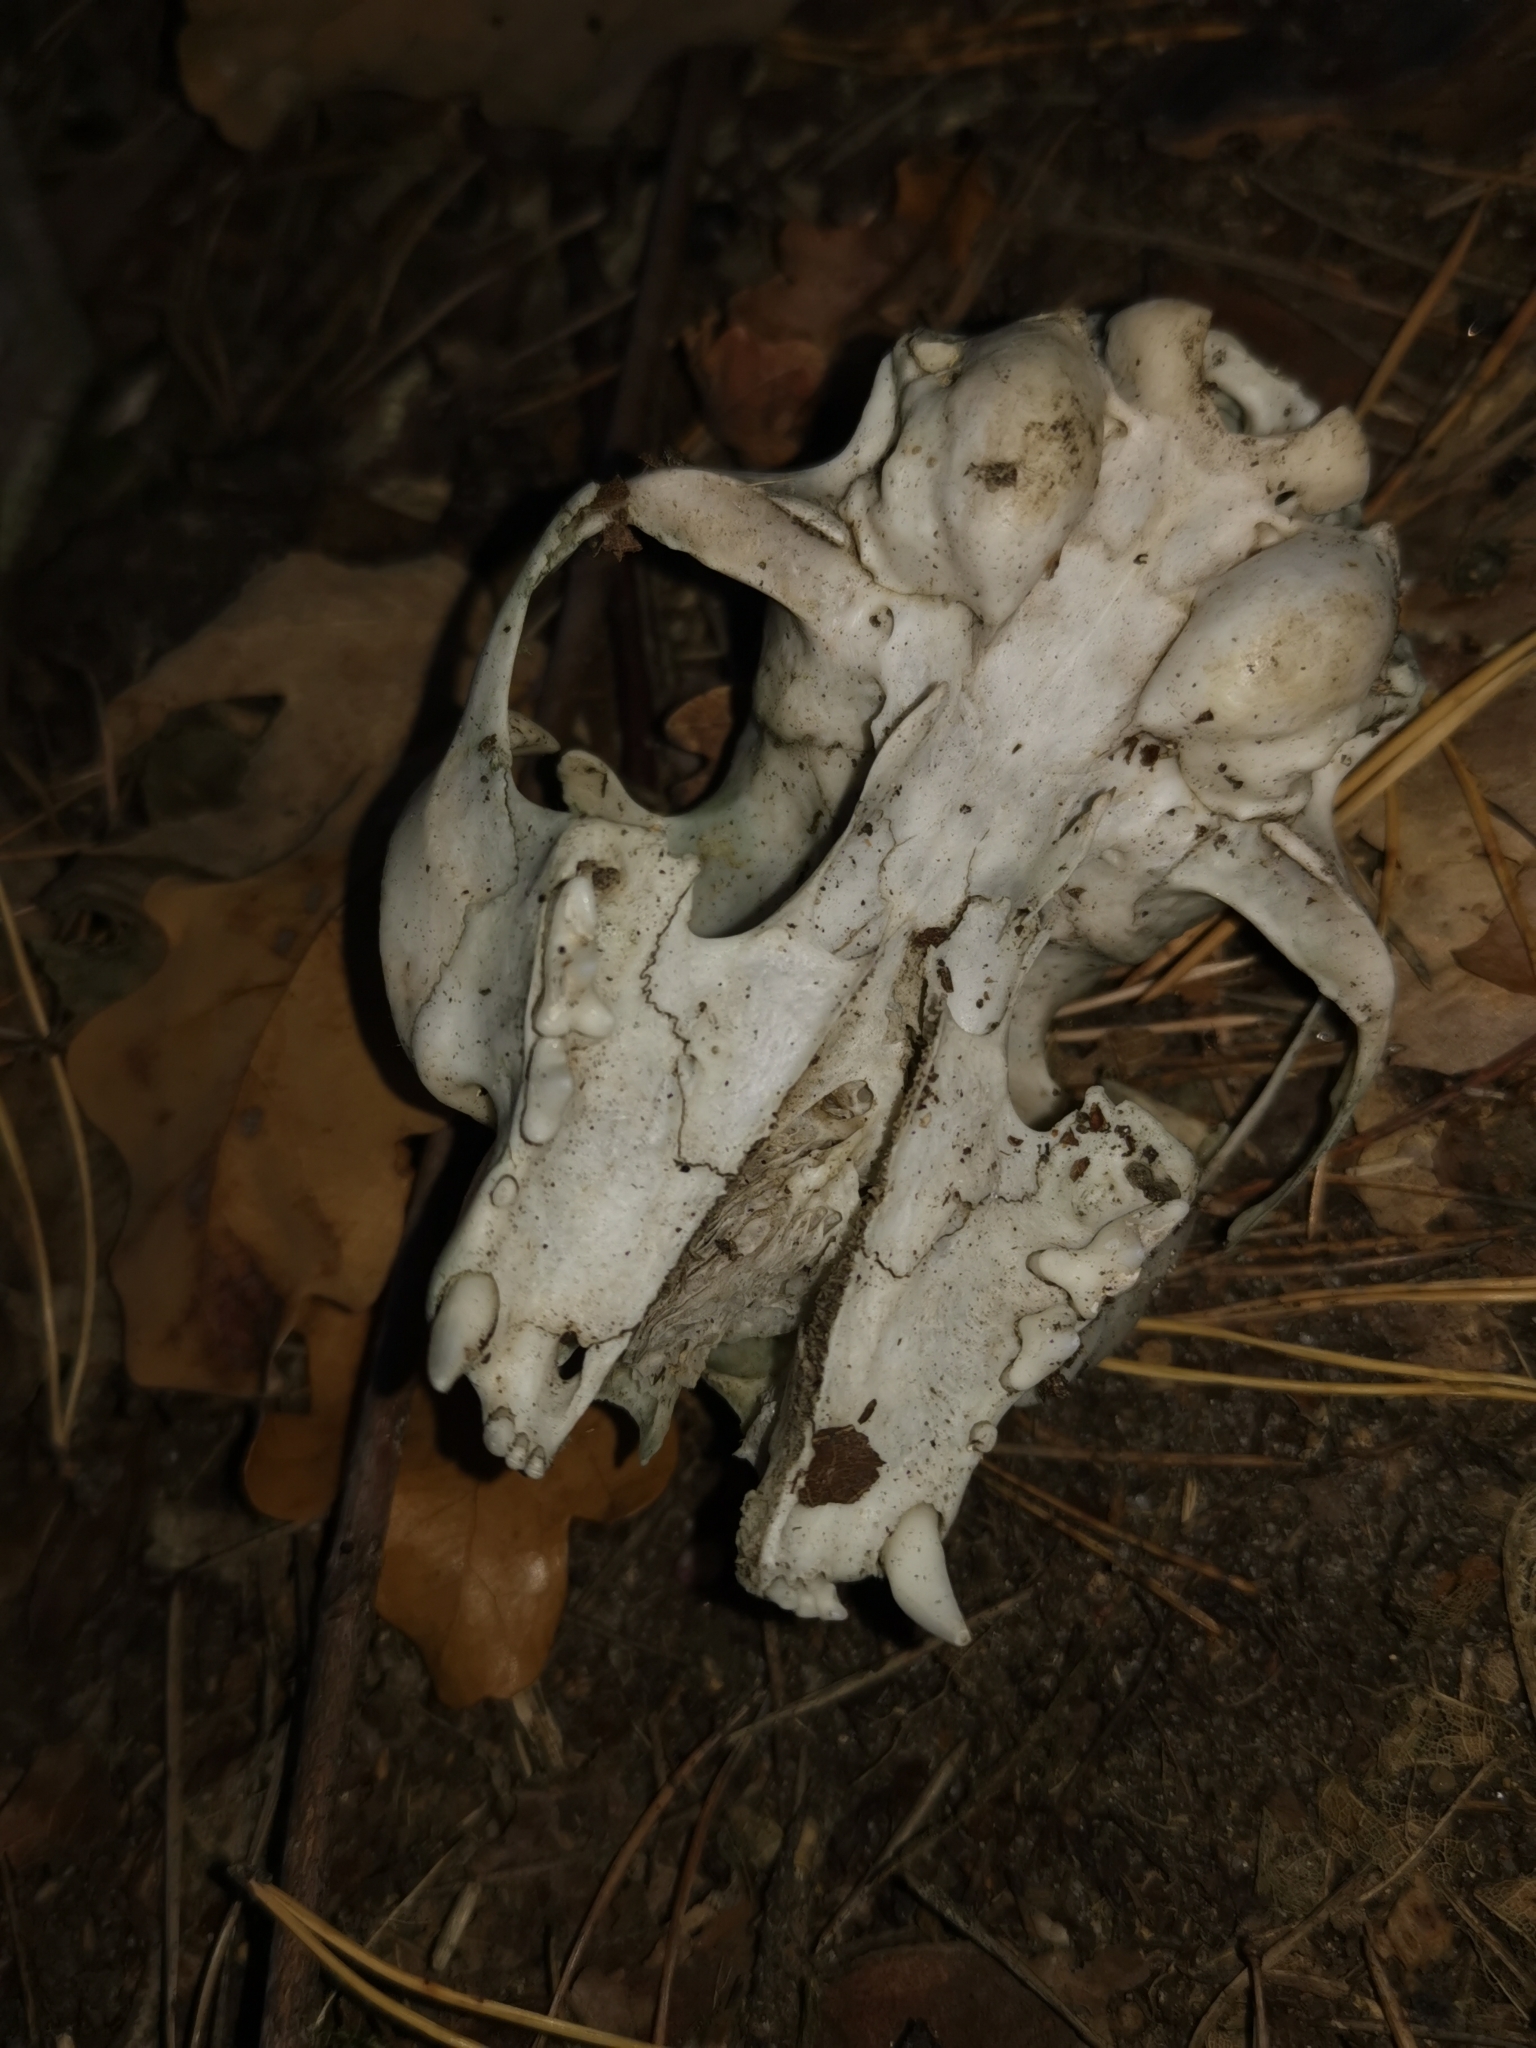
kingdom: Animalia
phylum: Chordata
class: Mammalia
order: Carnivora
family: Felidae
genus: Felis
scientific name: Felis catus
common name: Domestic cat
